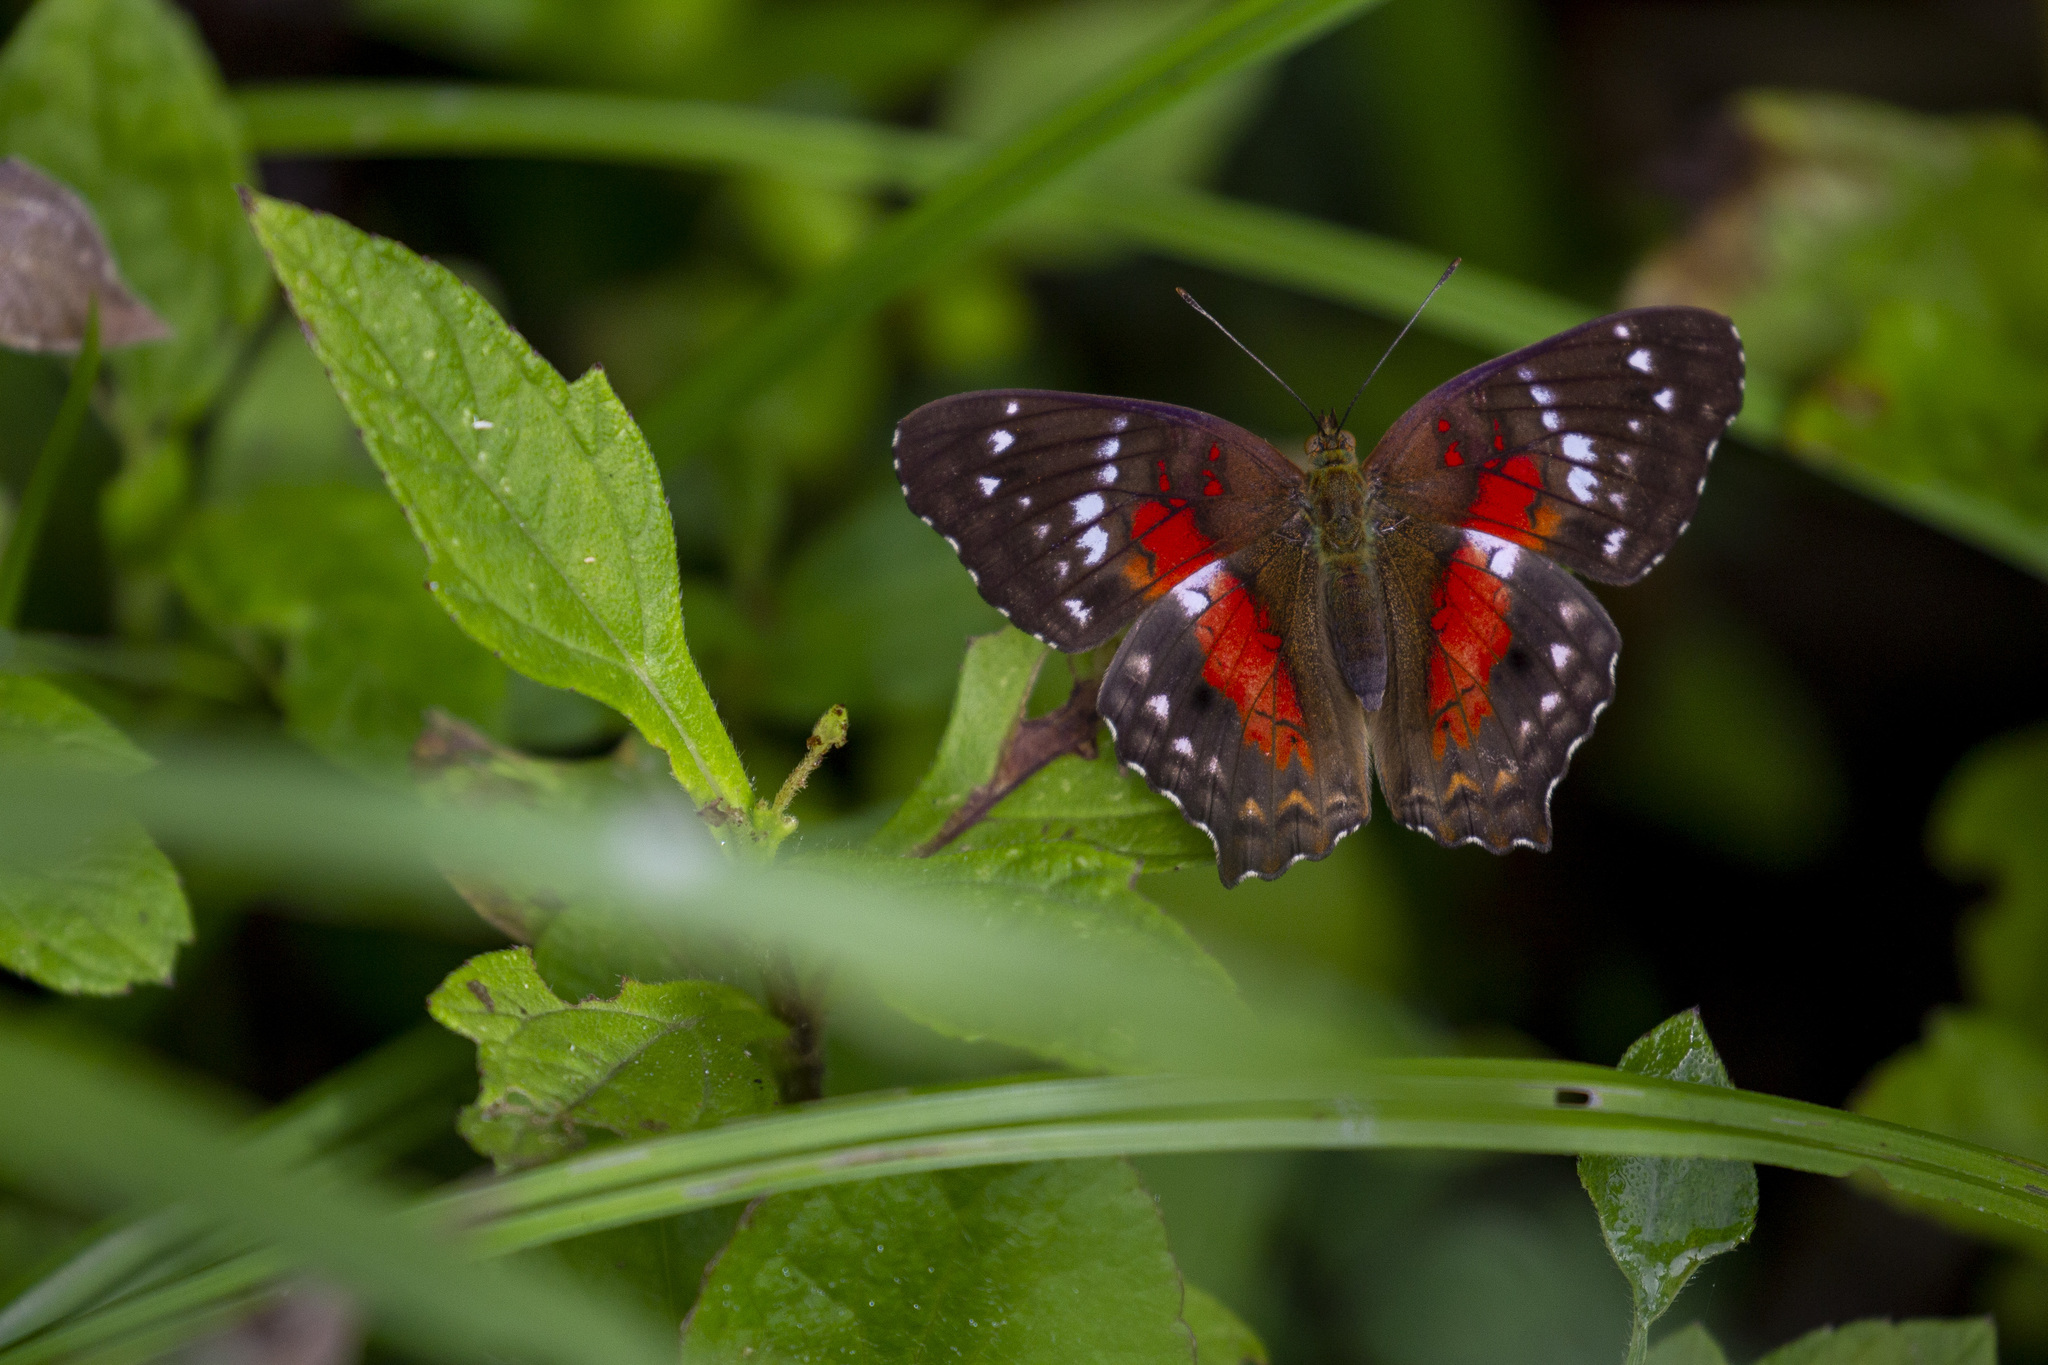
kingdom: Animalia
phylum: Arthropoda
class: Insecta
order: Lepidoptera
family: Nymphalidae
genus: Anartia
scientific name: Anartia amathea
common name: Red peacock
